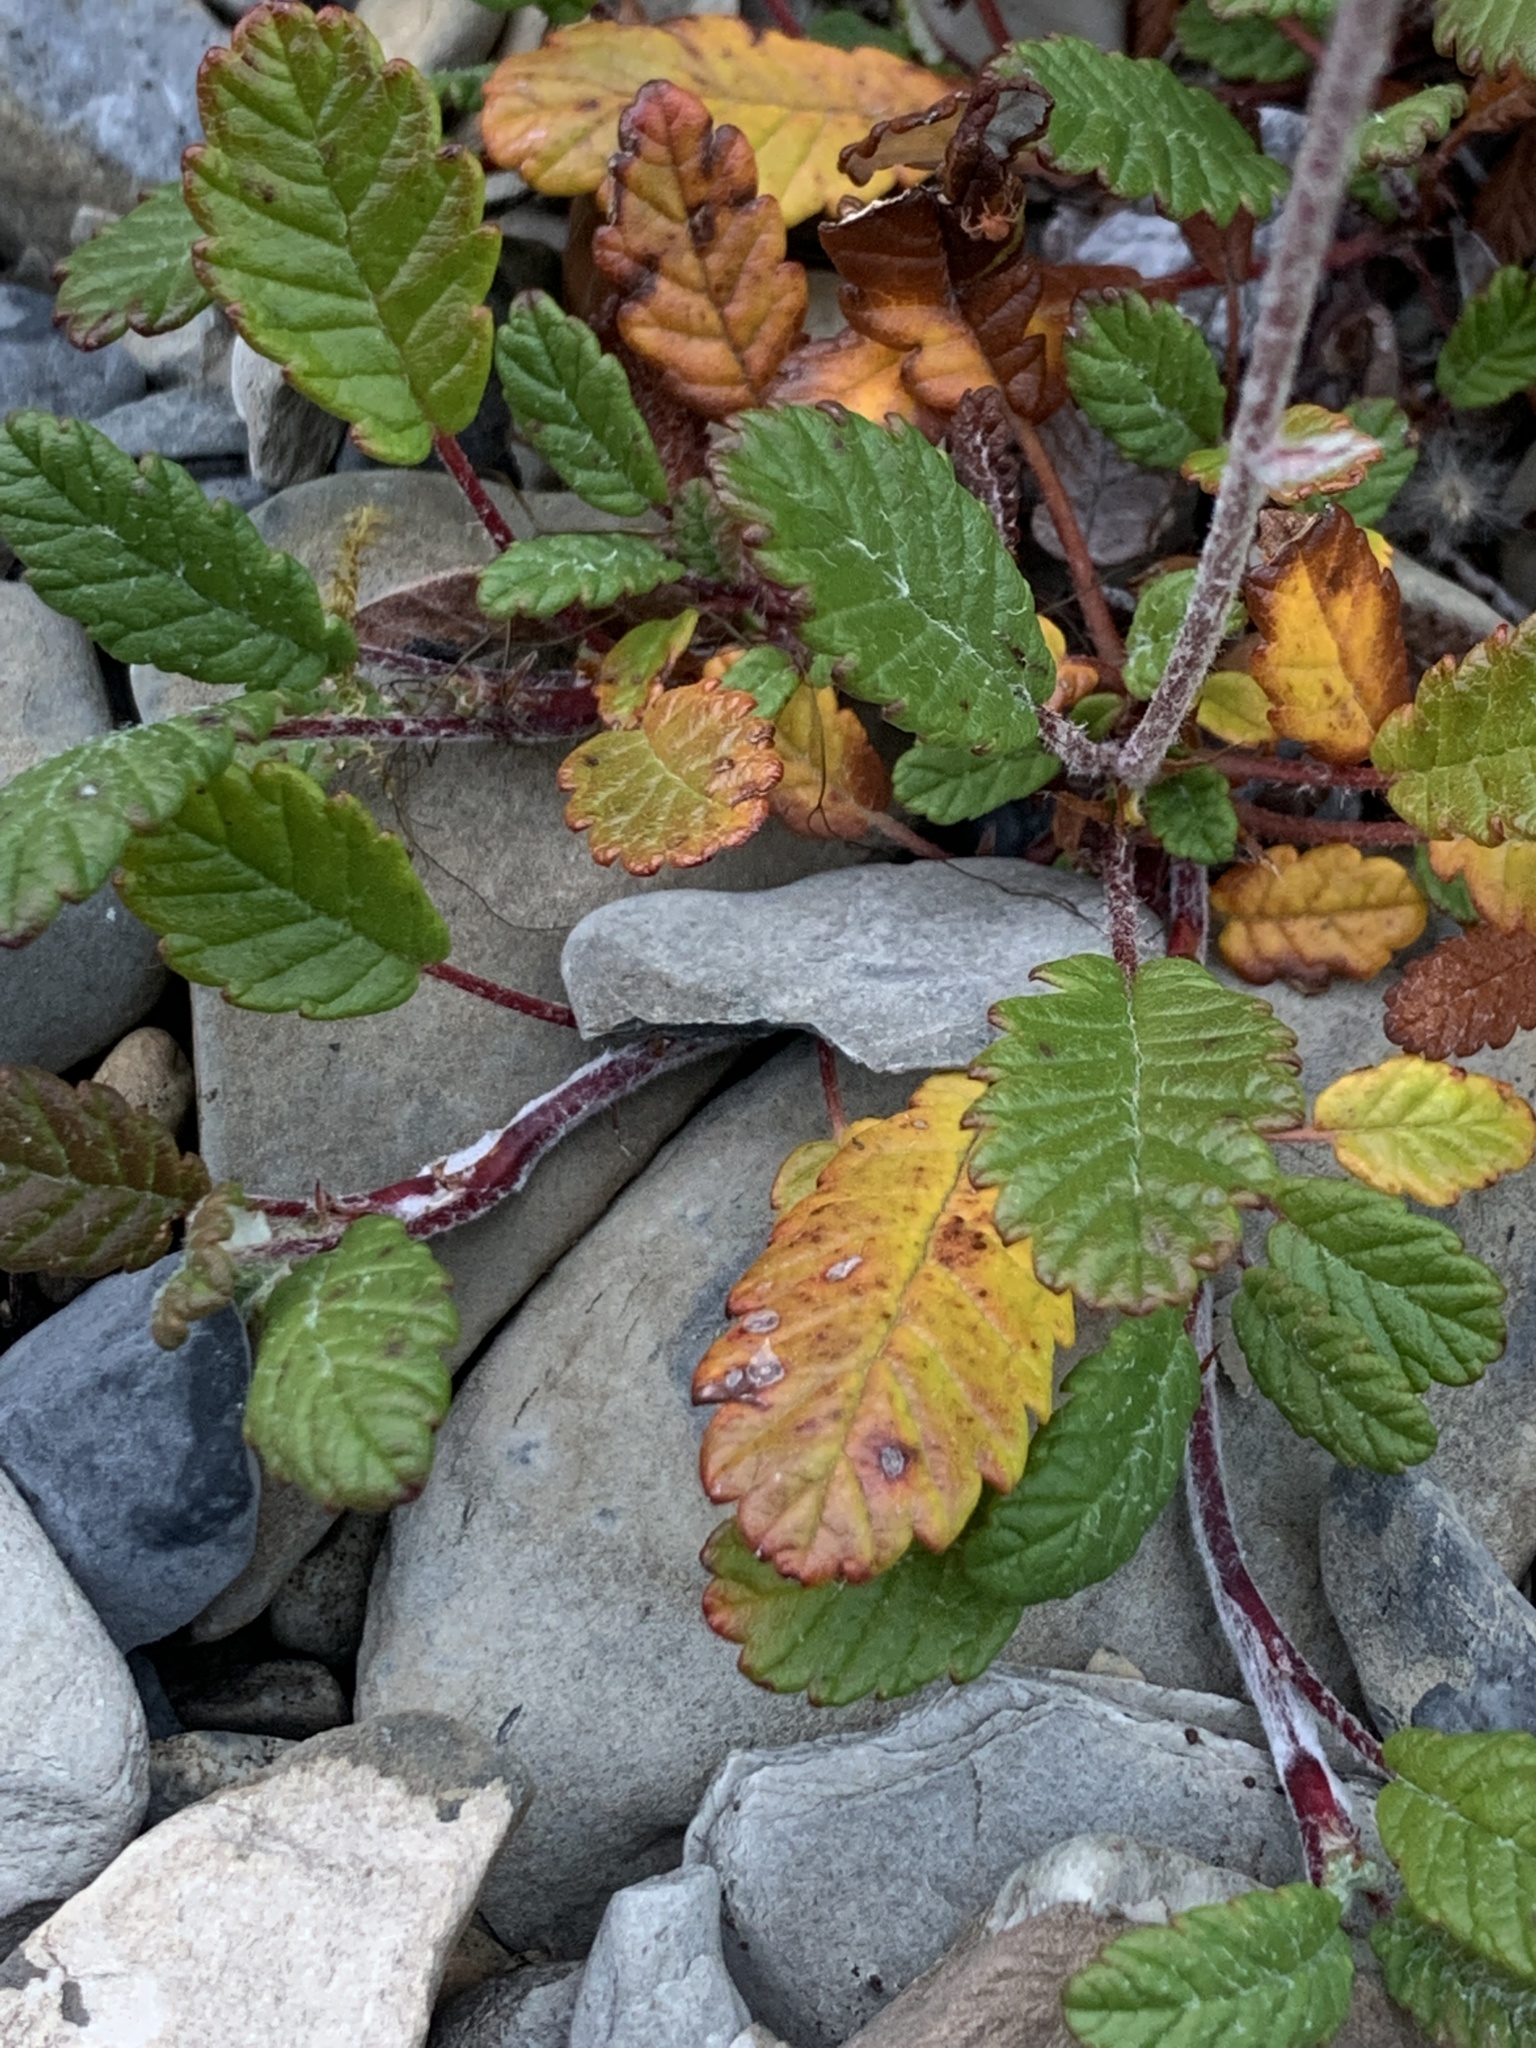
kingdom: Plantae
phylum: Tracheophyta
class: Magnoliopsida
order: Rosales
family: Rosaceae
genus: Dryas
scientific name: Dryas octopetala
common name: Eight-petal mountain-avens
